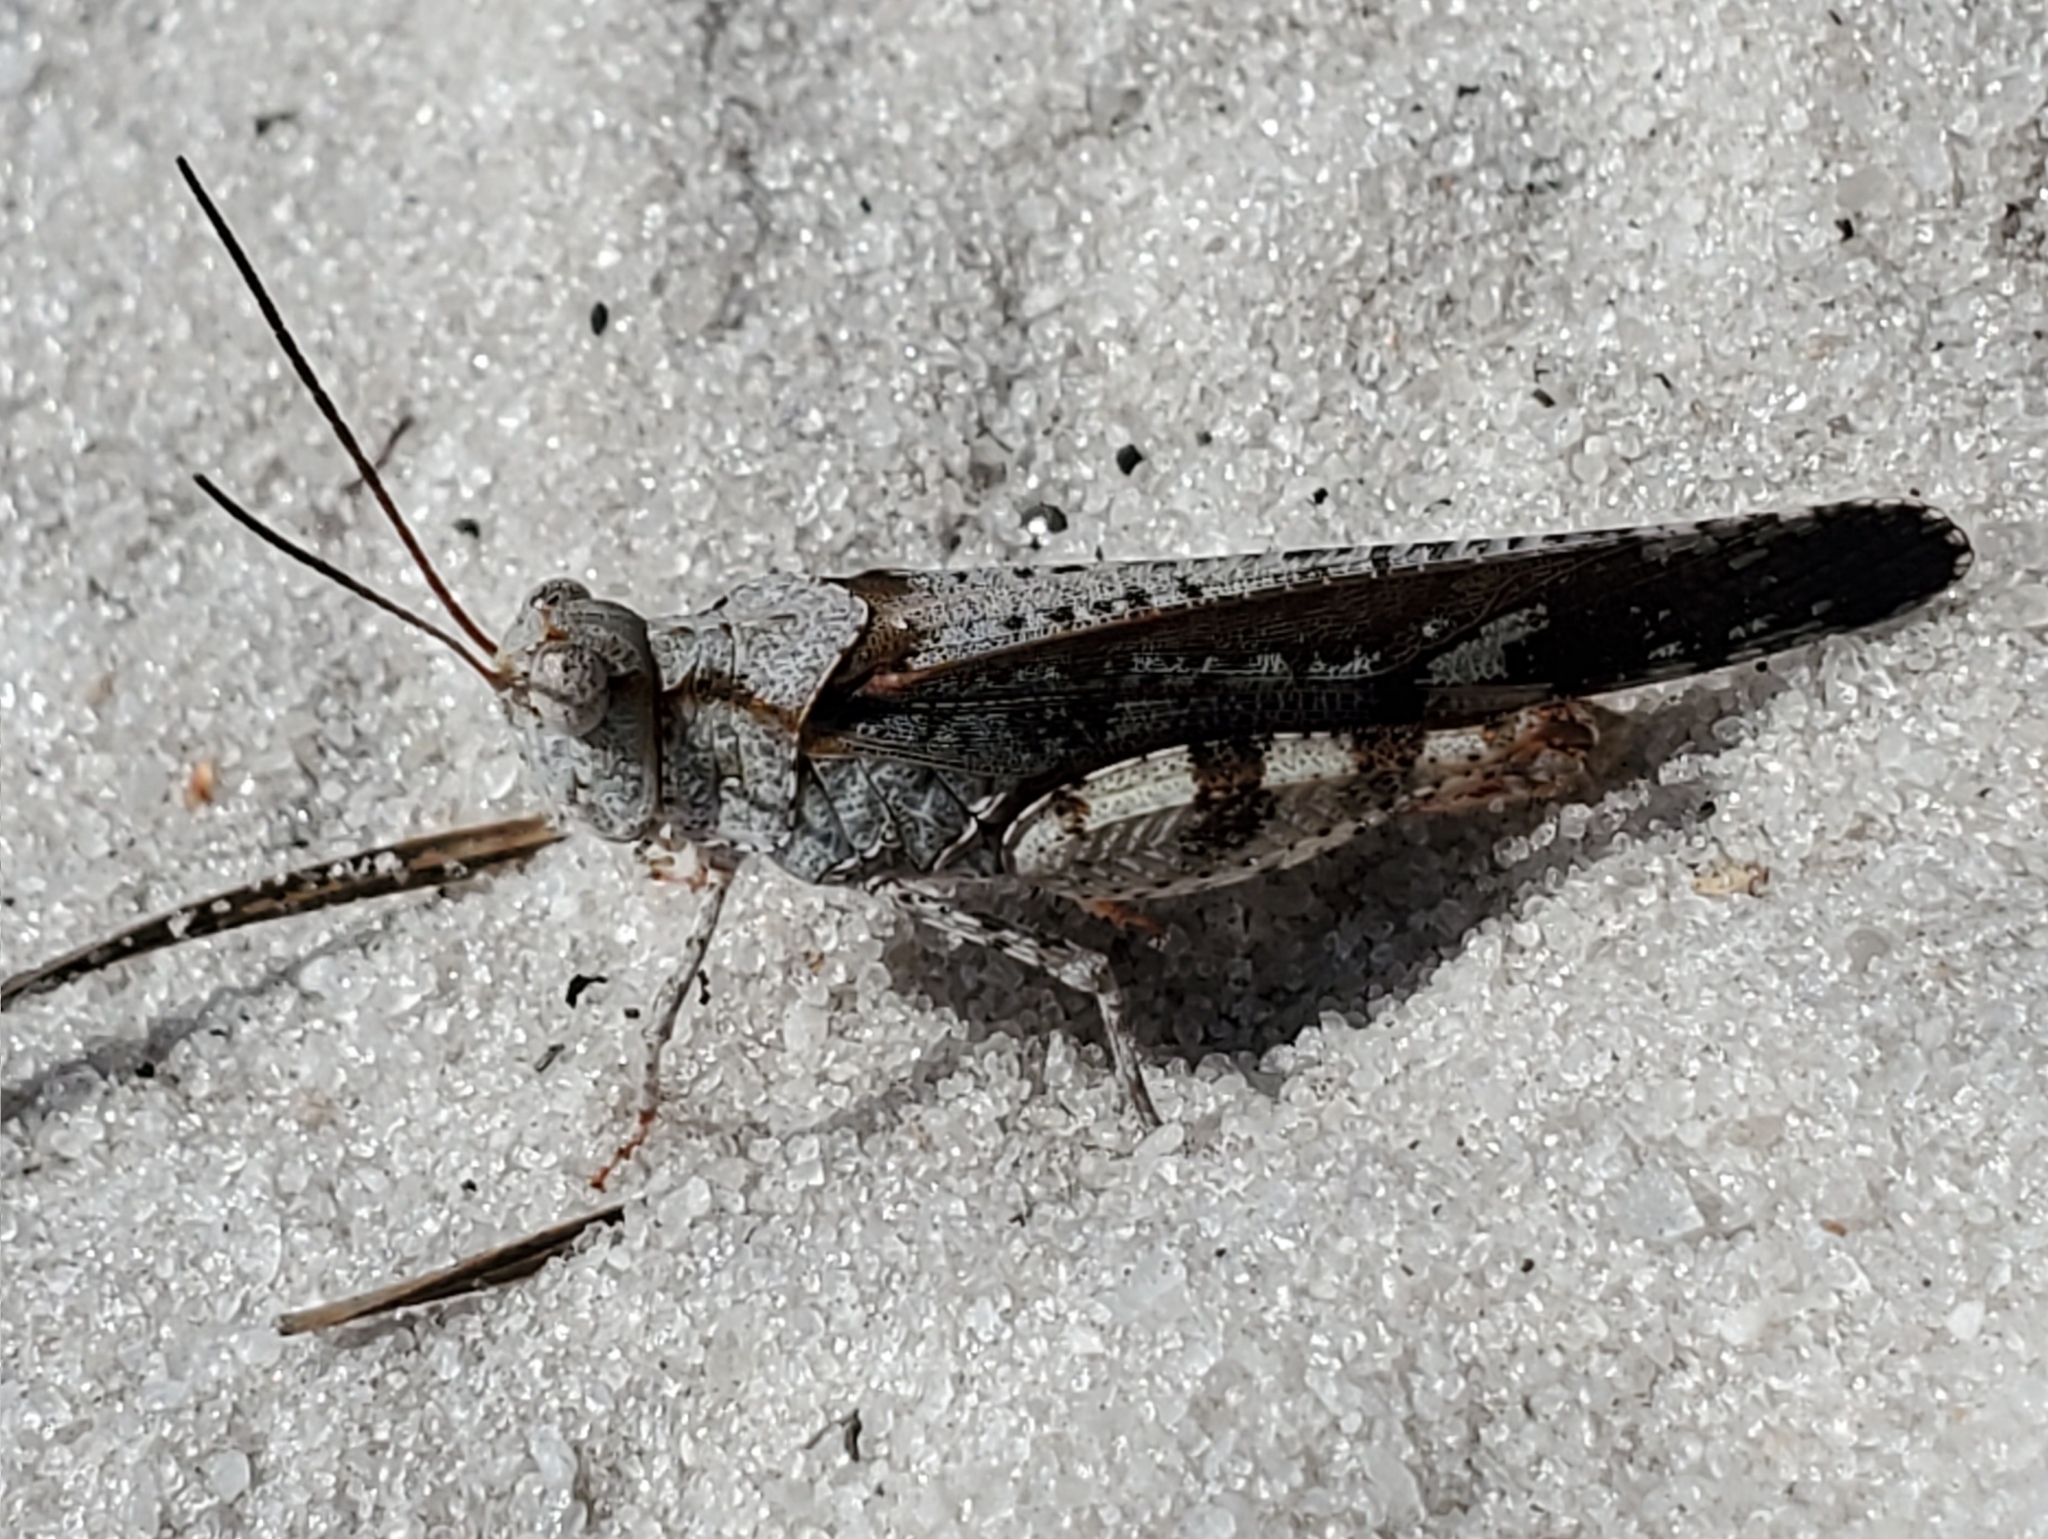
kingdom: Animalia
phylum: Arthropoda
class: Insecta
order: Orthoptera
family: Acrididae
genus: Spharagemon
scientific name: Spharagemon marmoratum
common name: Marbled grasshopper
